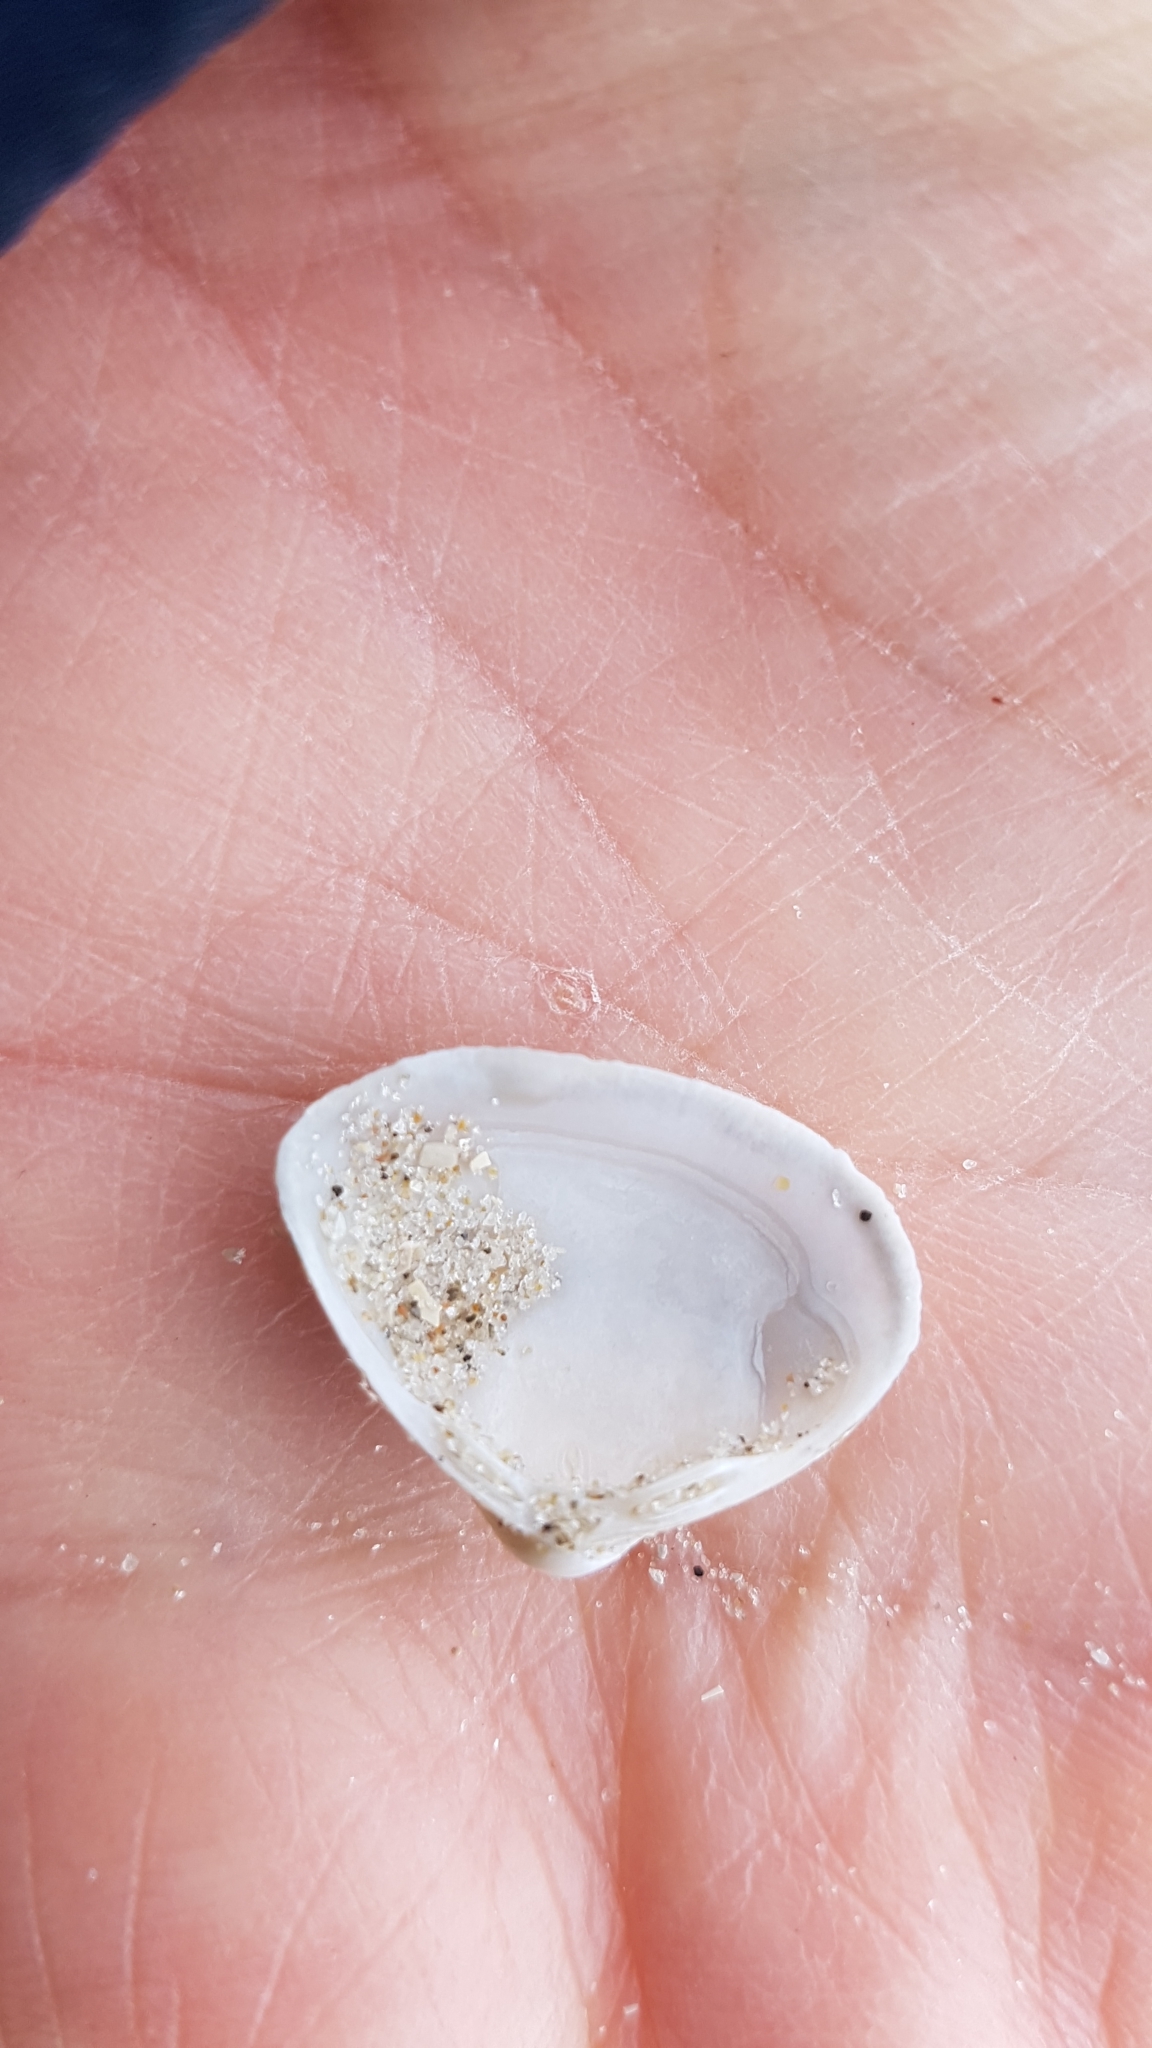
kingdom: Animalia
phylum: Mollusca
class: Bivalvia
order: Venerida
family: Mactridae
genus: Spisula
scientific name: Spisula subtruncata
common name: Cut trough shell
